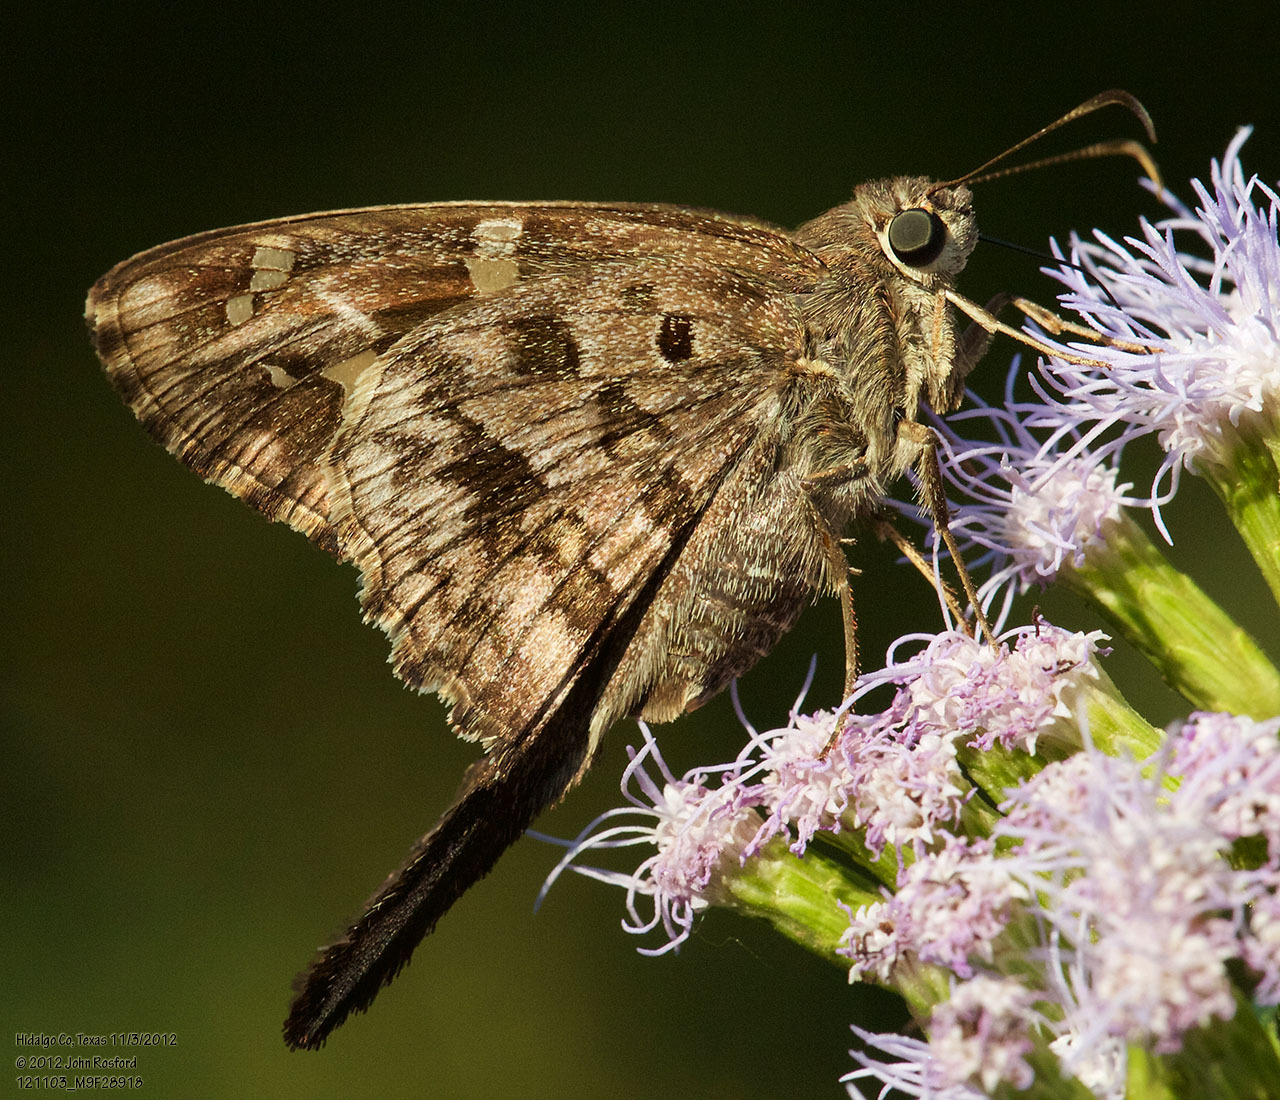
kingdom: Animalia
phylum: Arthropoda
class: Insecta
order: Lepidoptera
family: Hesperiidae
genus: Thorybes
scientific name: Thorybes
